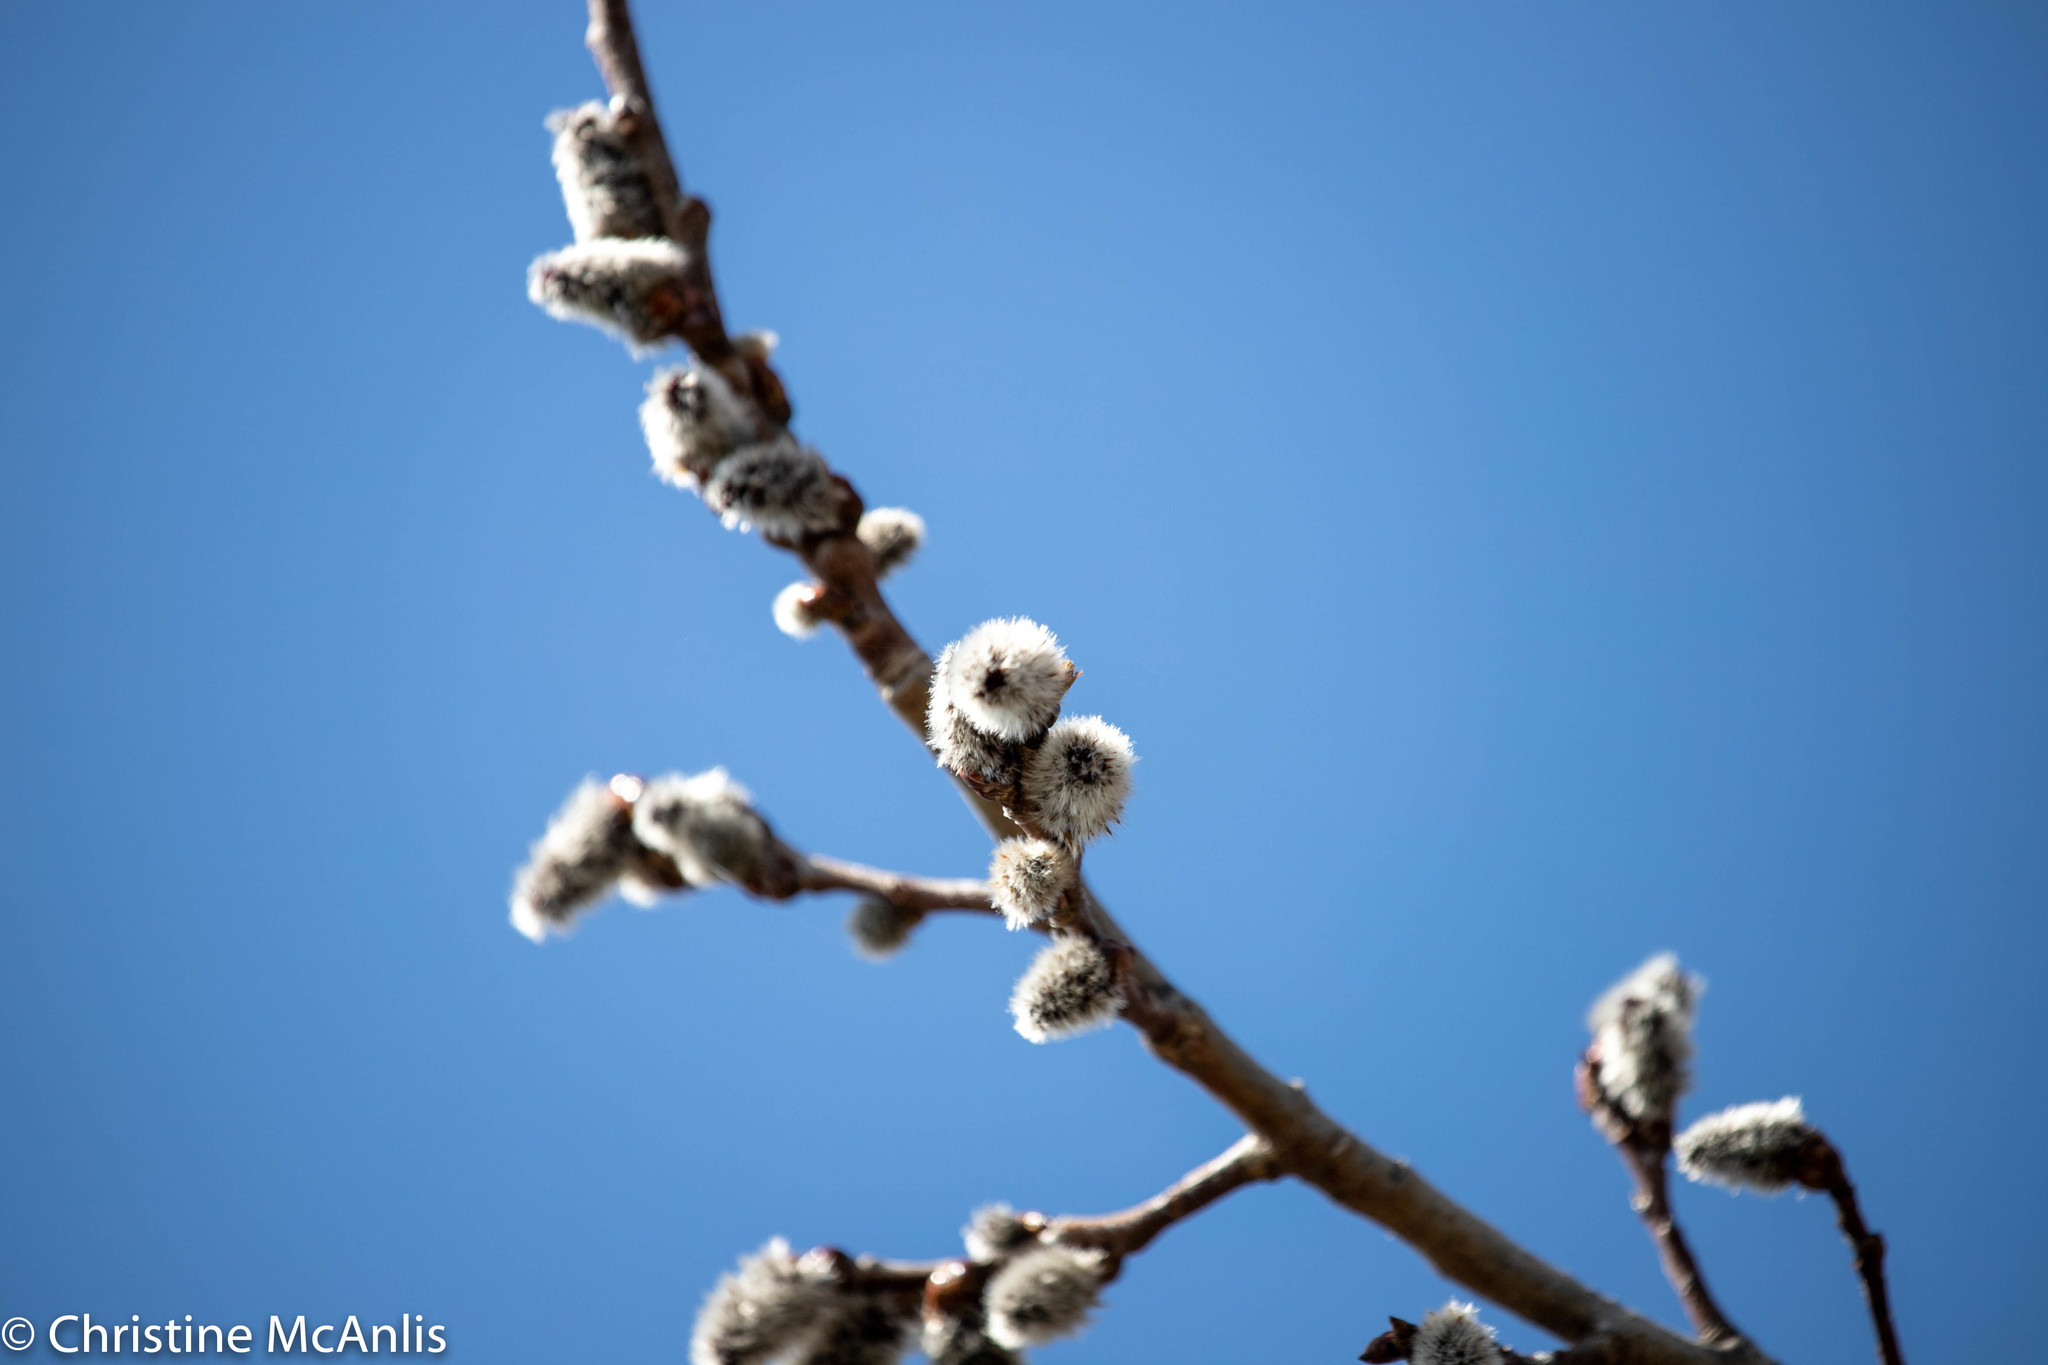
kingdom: Plantae
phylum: Tracheophyta
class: Magnoliopsida
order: Malpighiales
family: Salicaceae
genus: Salix
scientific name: Salix discolor
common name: Glaucous willow
